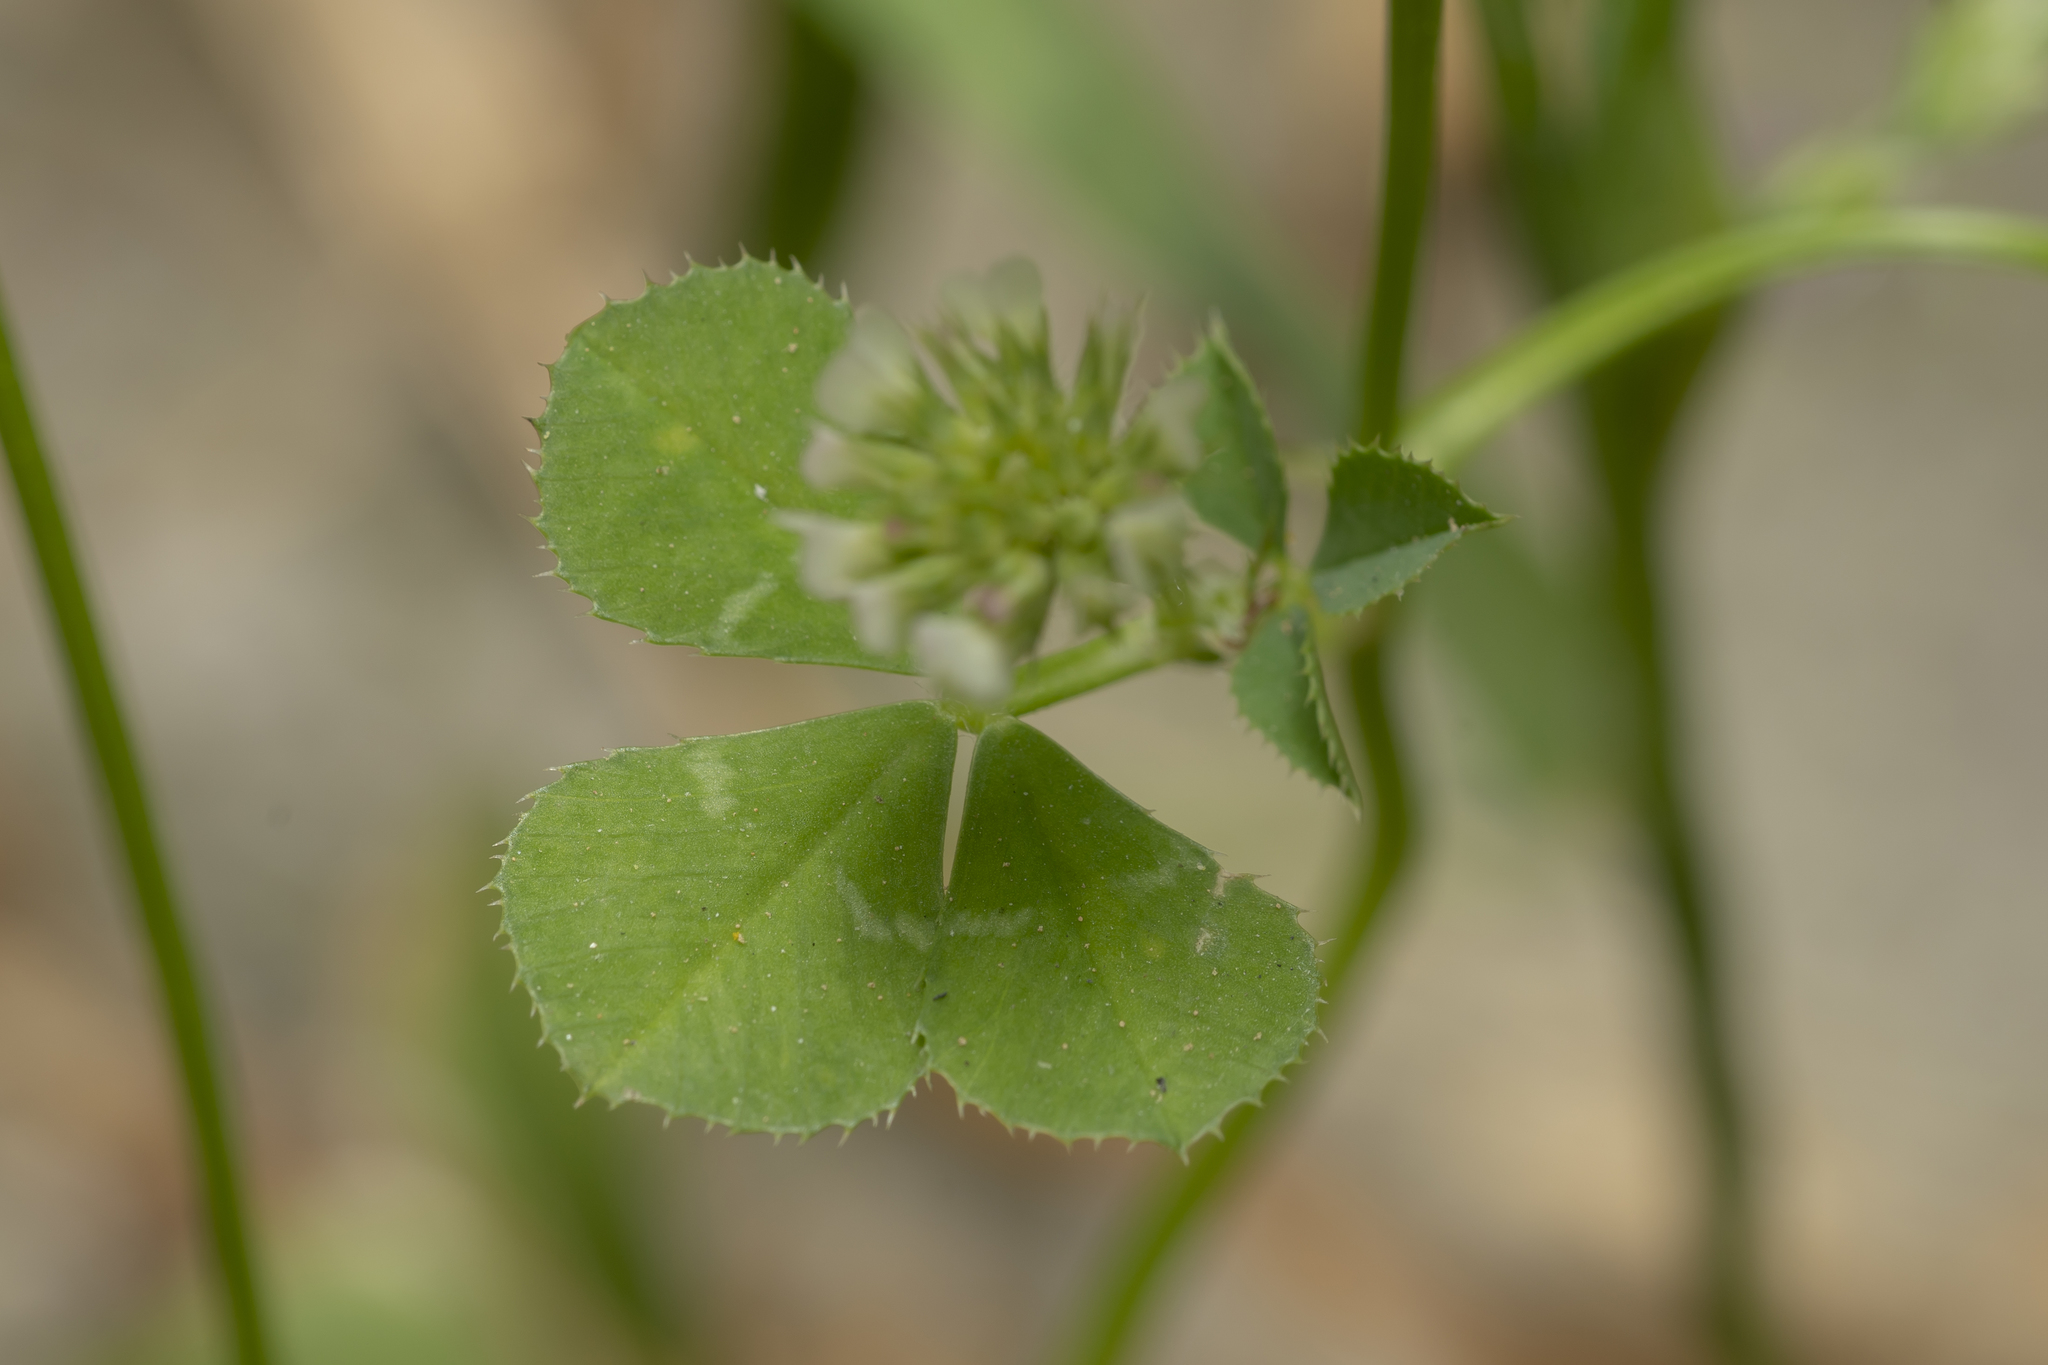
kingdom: Plantae
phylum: Tracheophyta
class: Magnoliopsida
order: Fabales
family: Fabaceae
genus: Trifolium
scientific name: Trifolium nigrescens
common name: Small white clover
